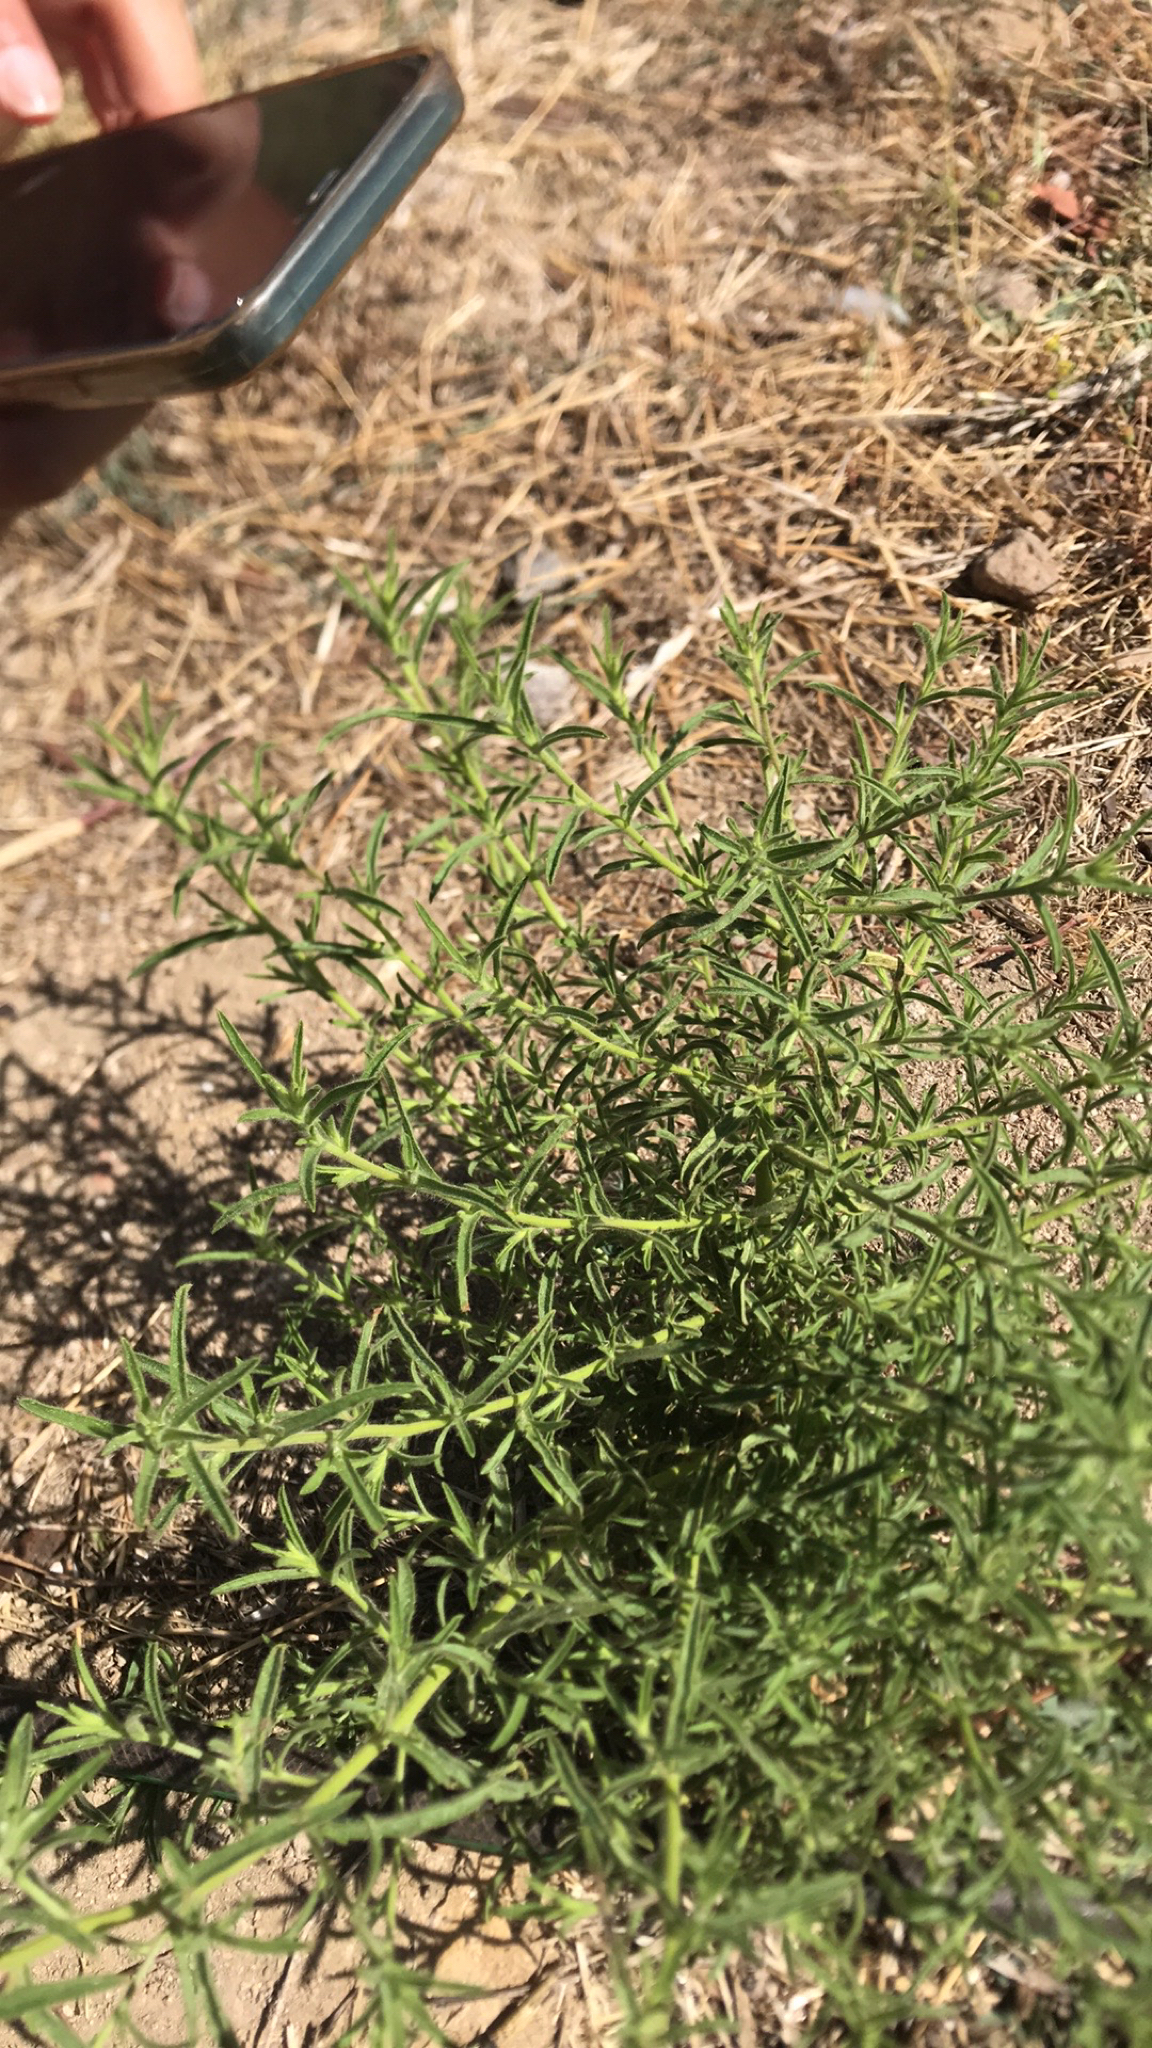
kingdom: Plantae
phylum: Tracheophyta
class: Magnoliopsida
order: Asterales
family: Asteraceae
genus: Dittrichia
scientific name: Dittrichia graveolens
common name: Stinking fleabane
